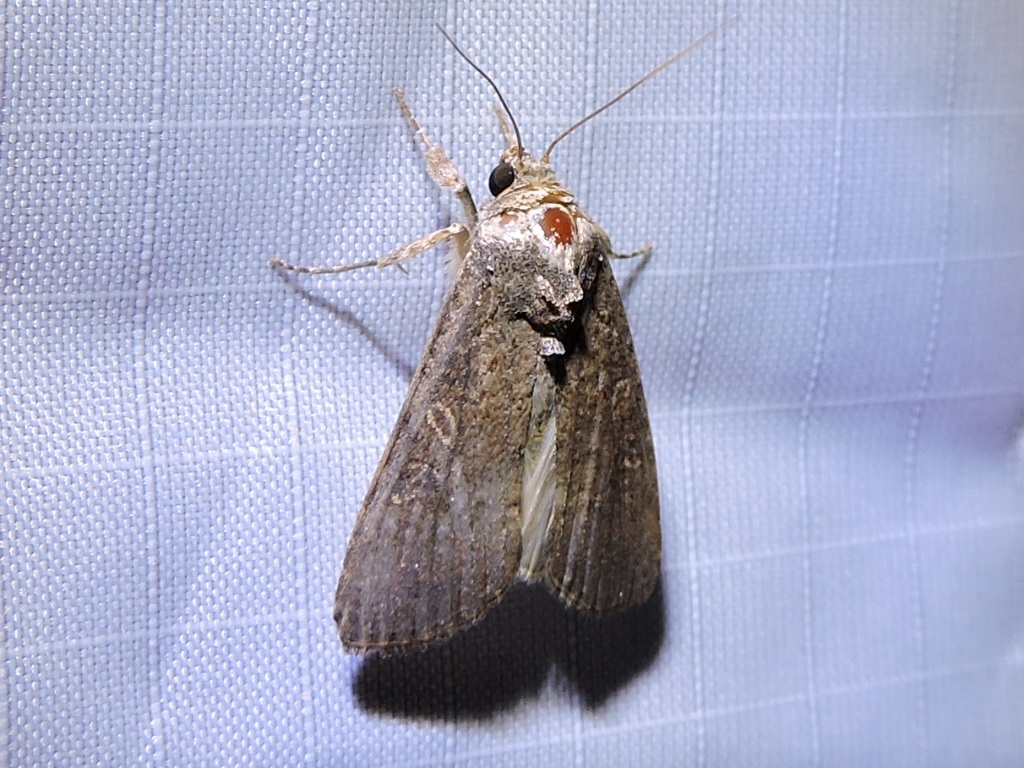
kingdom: Animalia
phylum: Arthropoda
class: Insecta
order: Lepidoptera
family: Noctuidae
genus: Spodoptera
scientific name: Spodoptera frugiperda
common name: Fall armyworm
